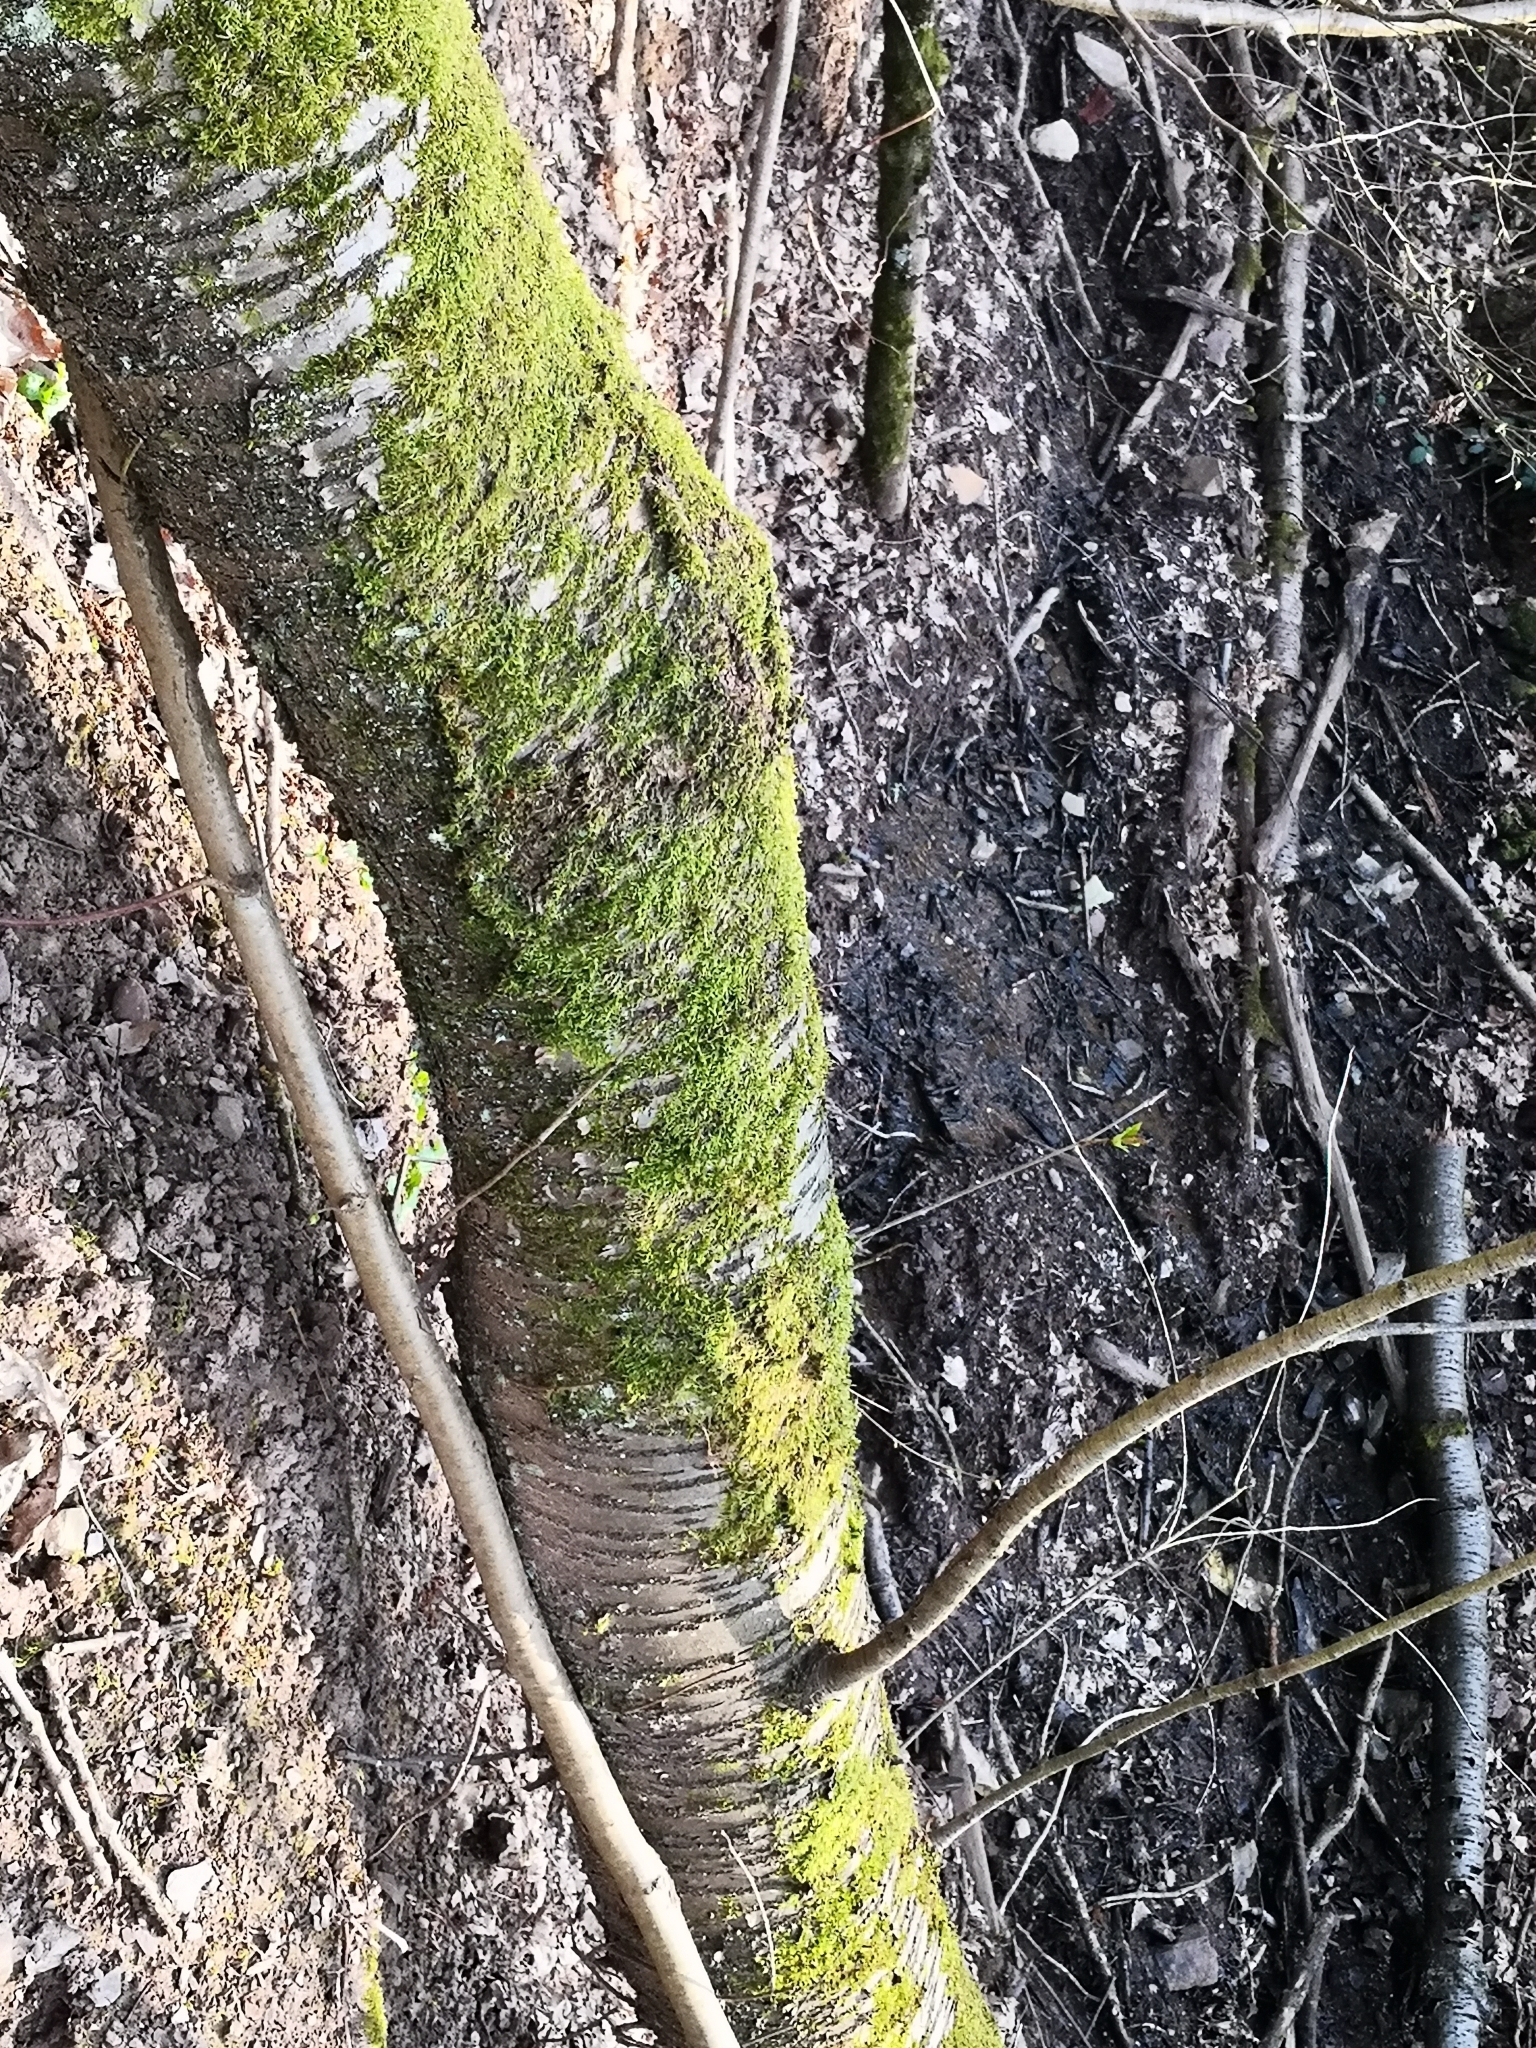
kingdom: Plantae
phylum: Tracheophyta
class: Magnoliopsida
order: Rosales
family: Rosaceae
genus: Prunus
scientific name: Prunus avium
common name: Sweet cherry
